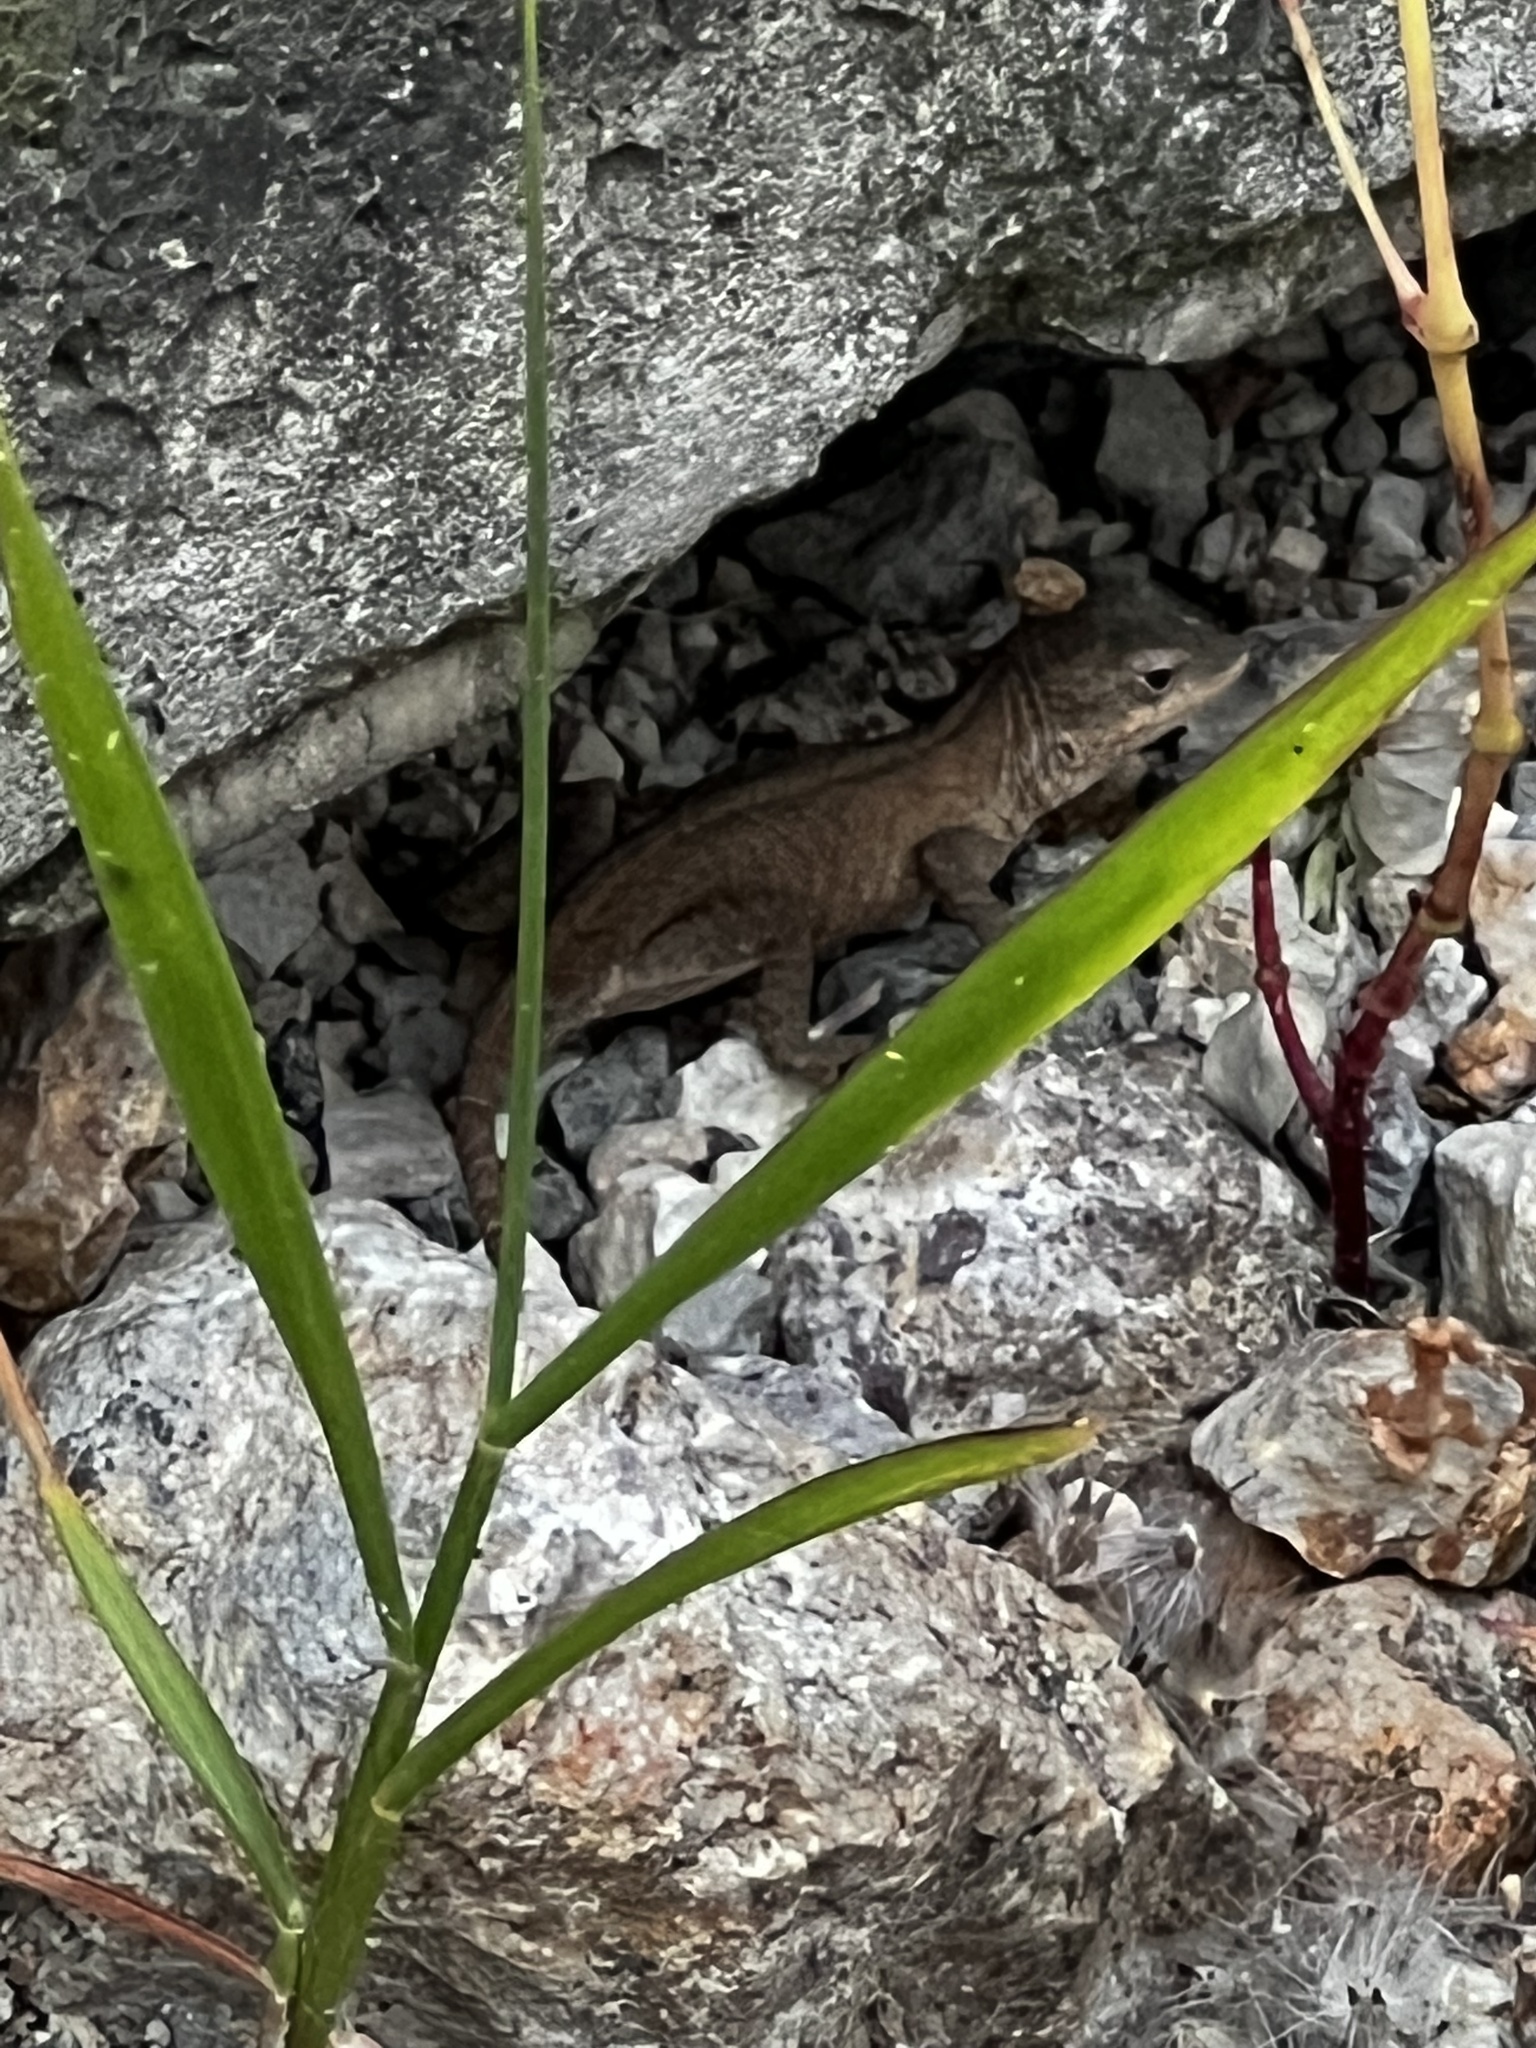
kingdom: Animalia
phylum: Chordata
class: Squamata
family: Dactyloidae
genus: Anolis
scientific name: Anolis nebulosus
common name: Clouded anole
